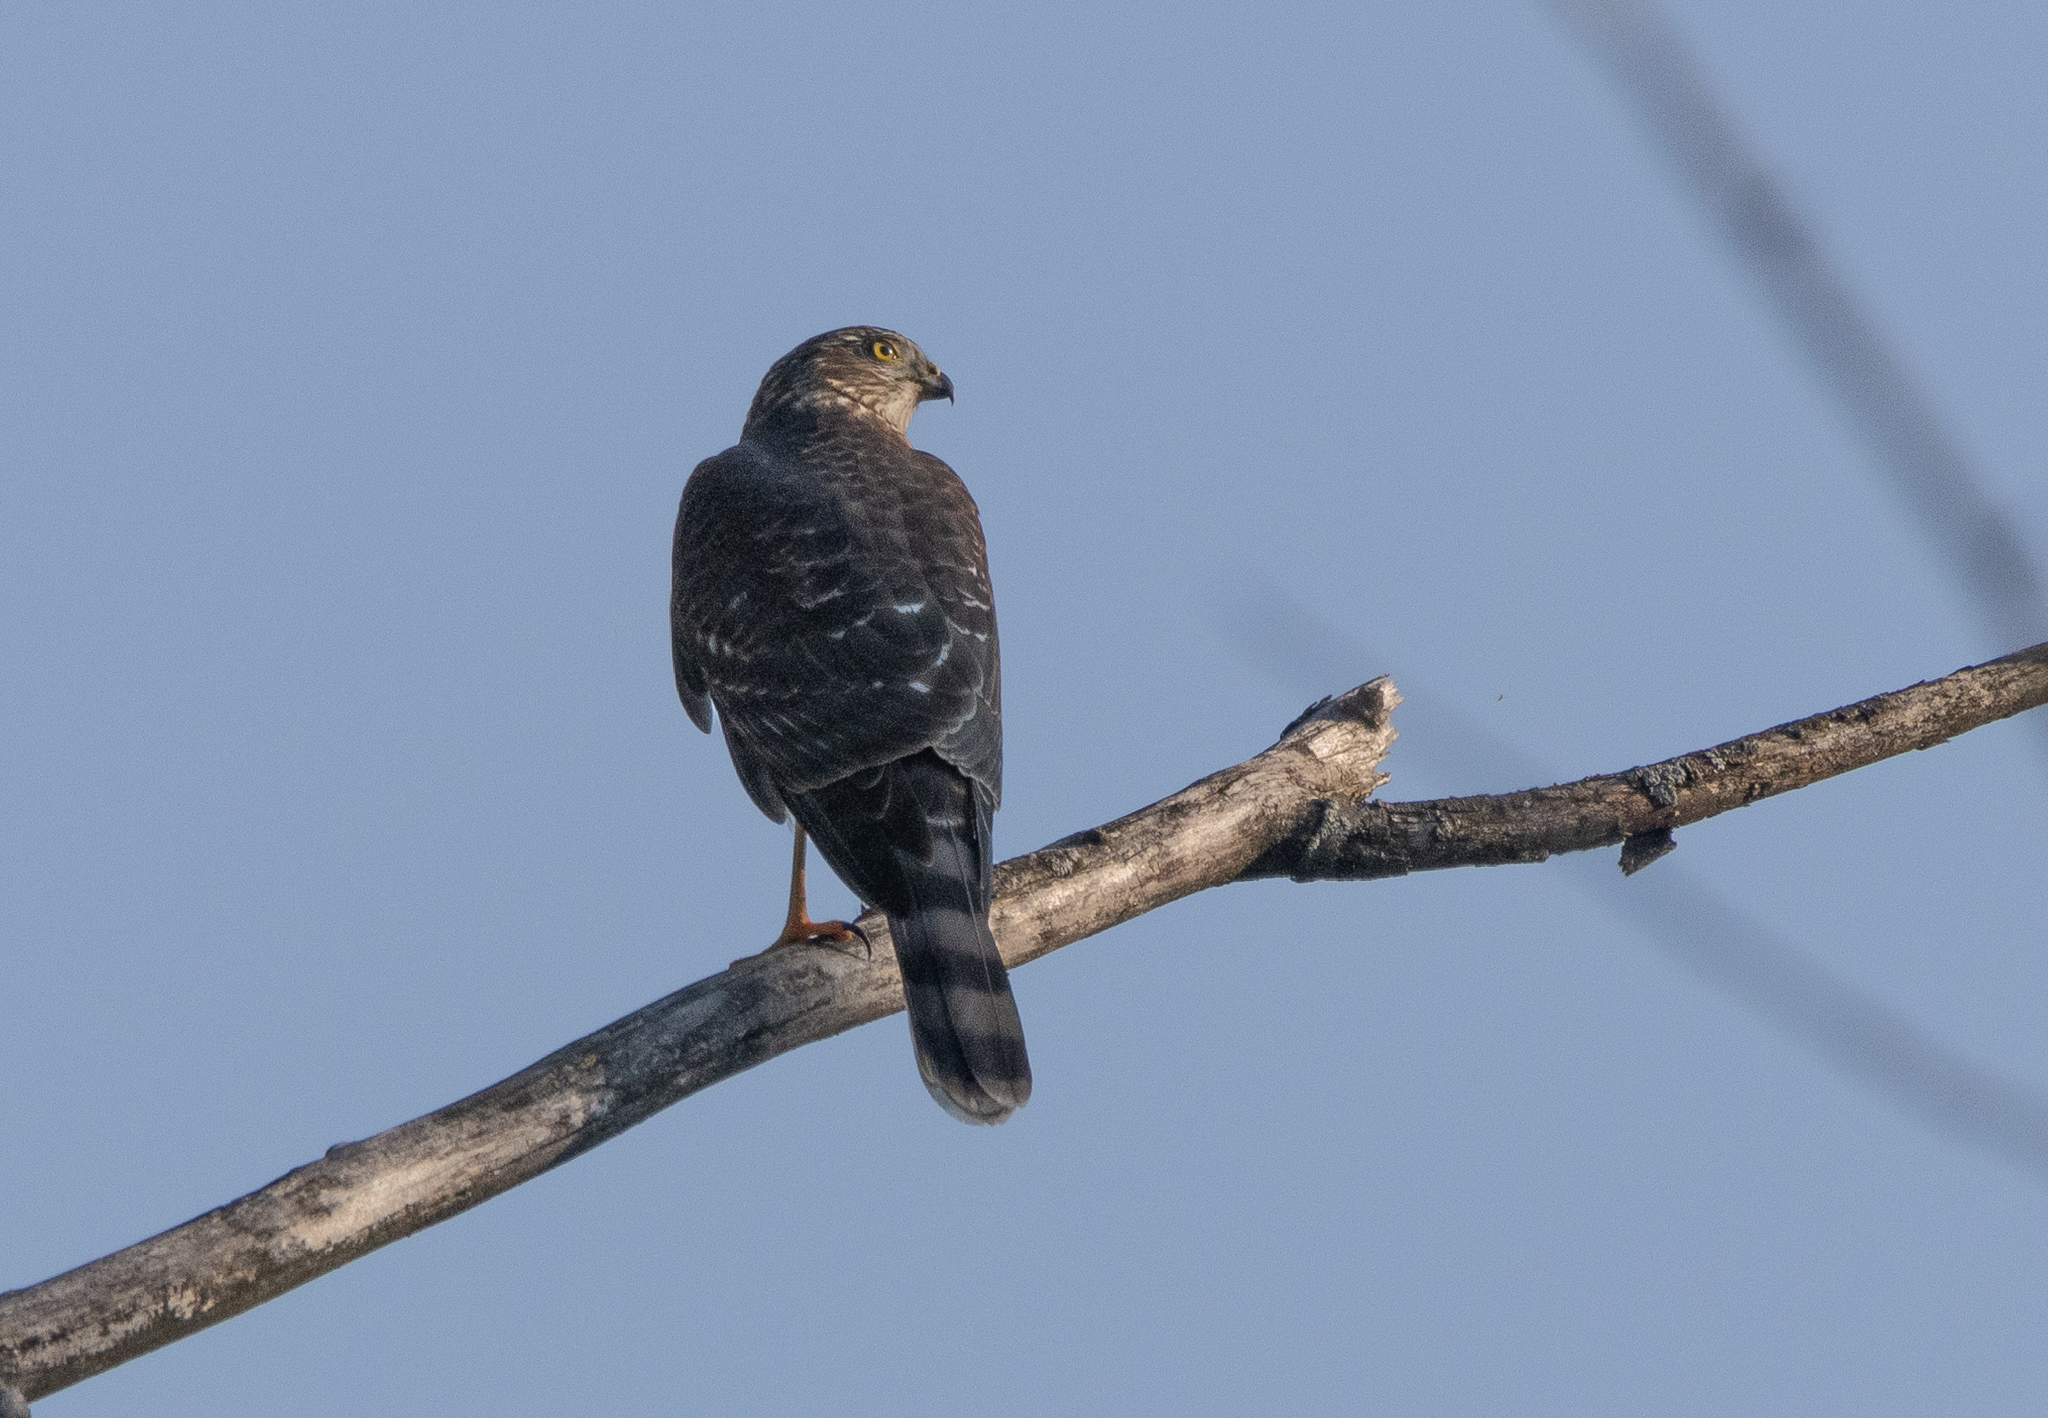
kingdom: Animalia
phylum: Chordata
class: Aves
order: Accipitriformes
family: Accipitridae
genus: Accipiter
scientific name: Accipiter striatus
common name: Sharp-shinned hawk
